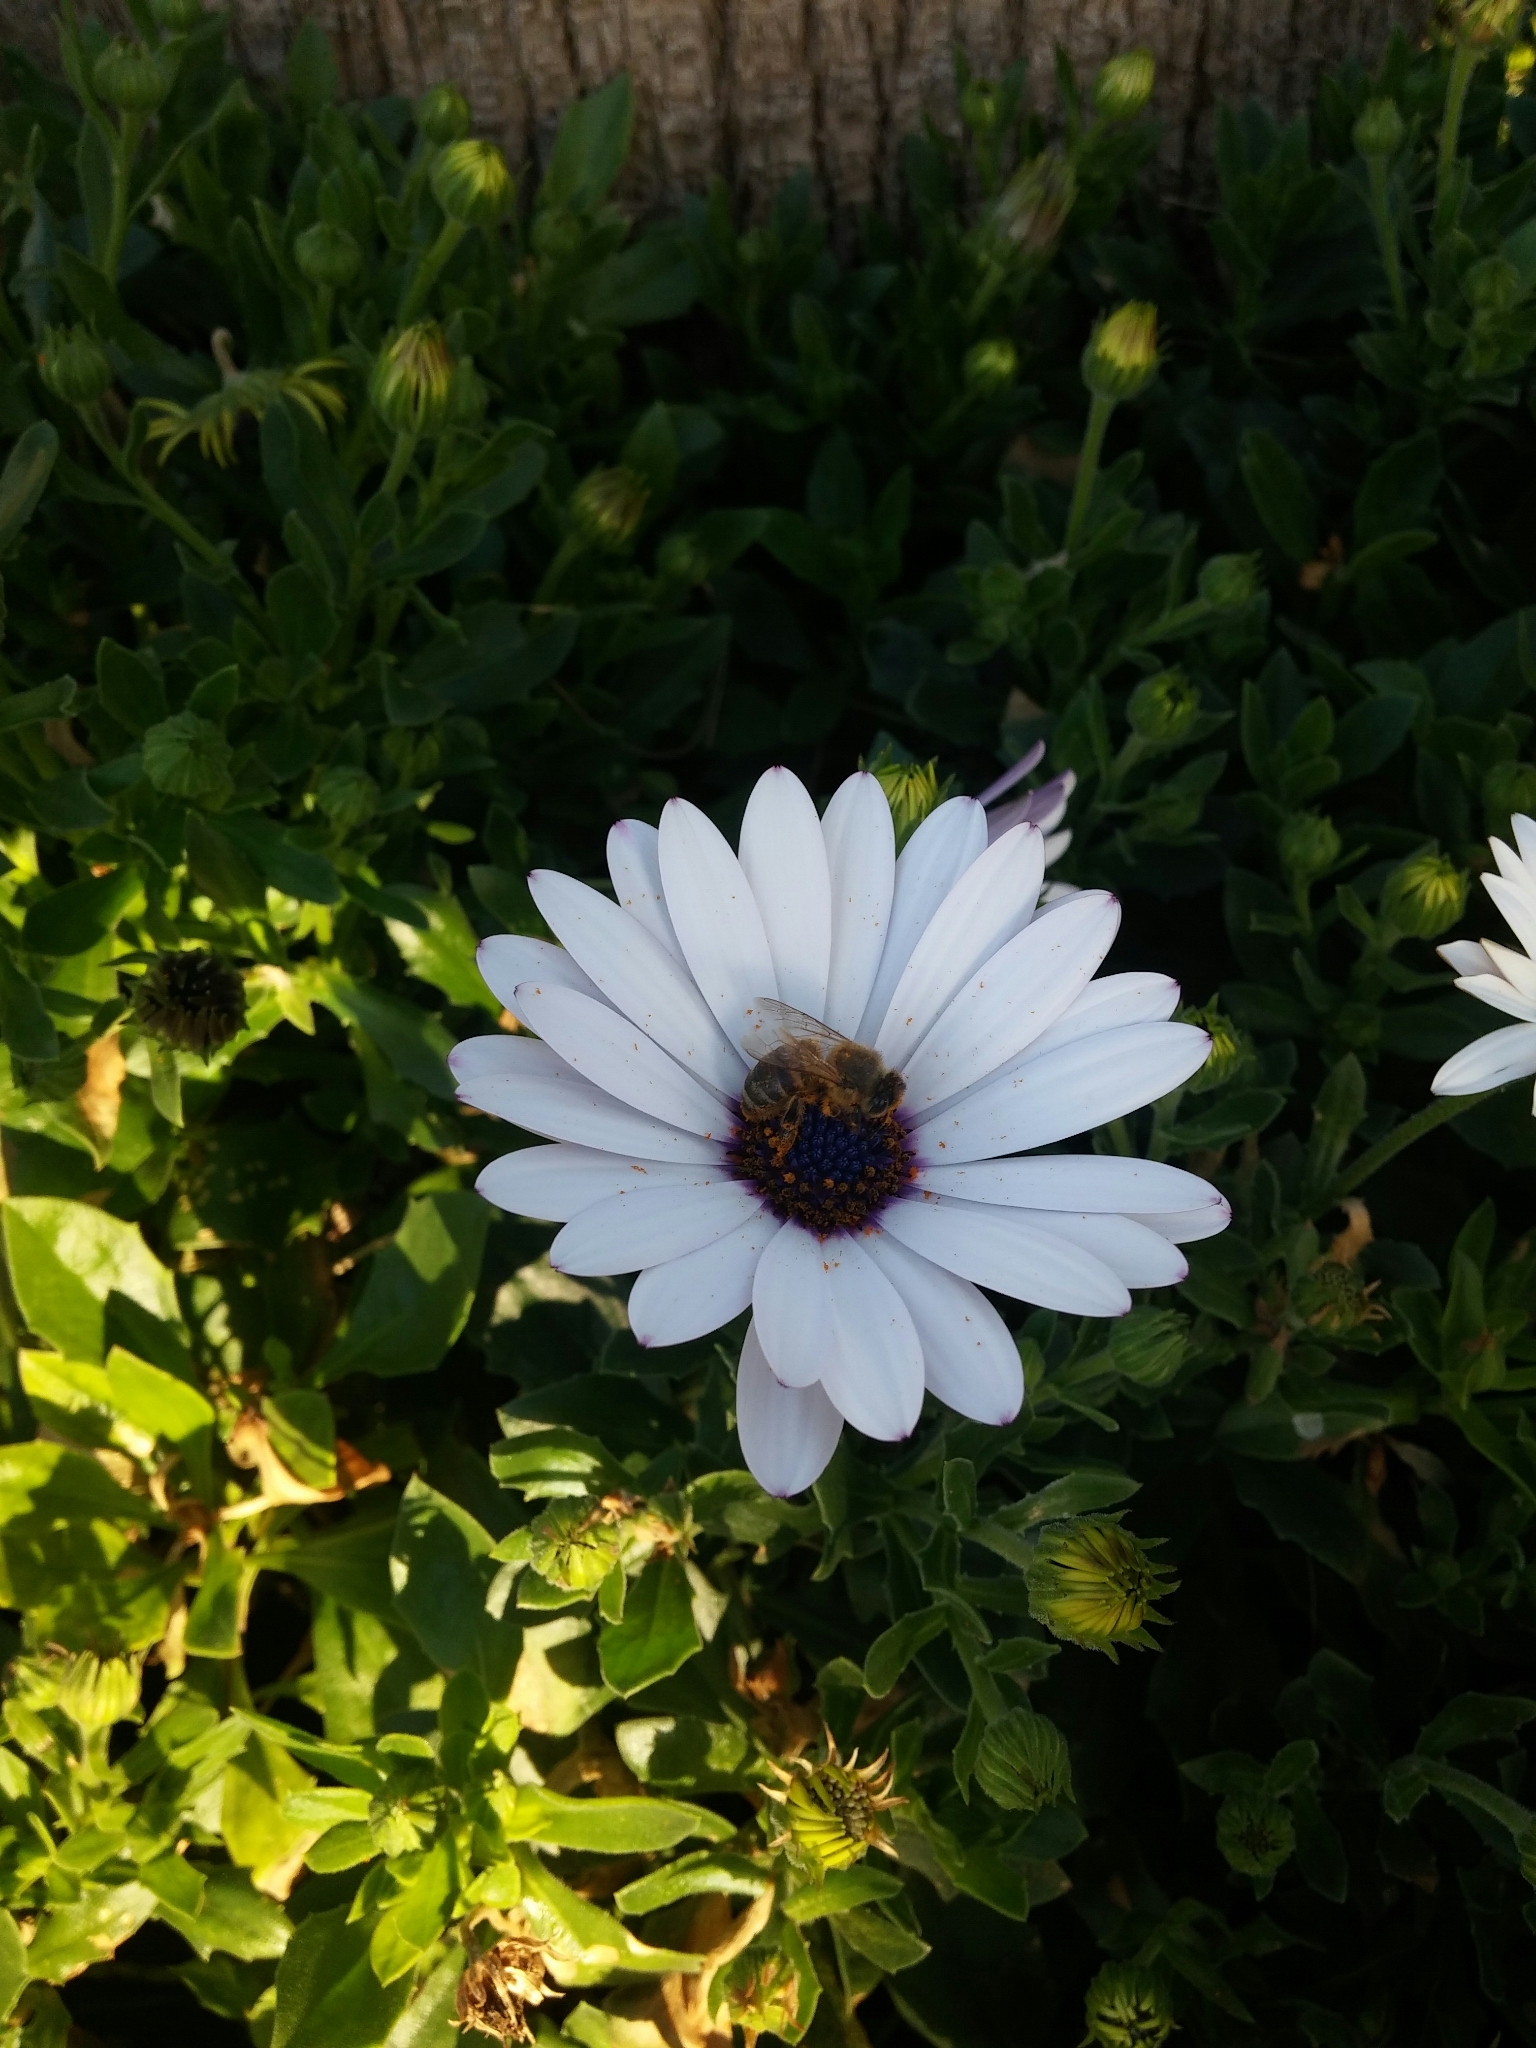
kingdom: Animalia
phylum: Arthropoda
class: Insecta
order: Hymenoptera
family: Apidae
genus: Apis
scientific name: Apis mellifera
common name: Honey bee
